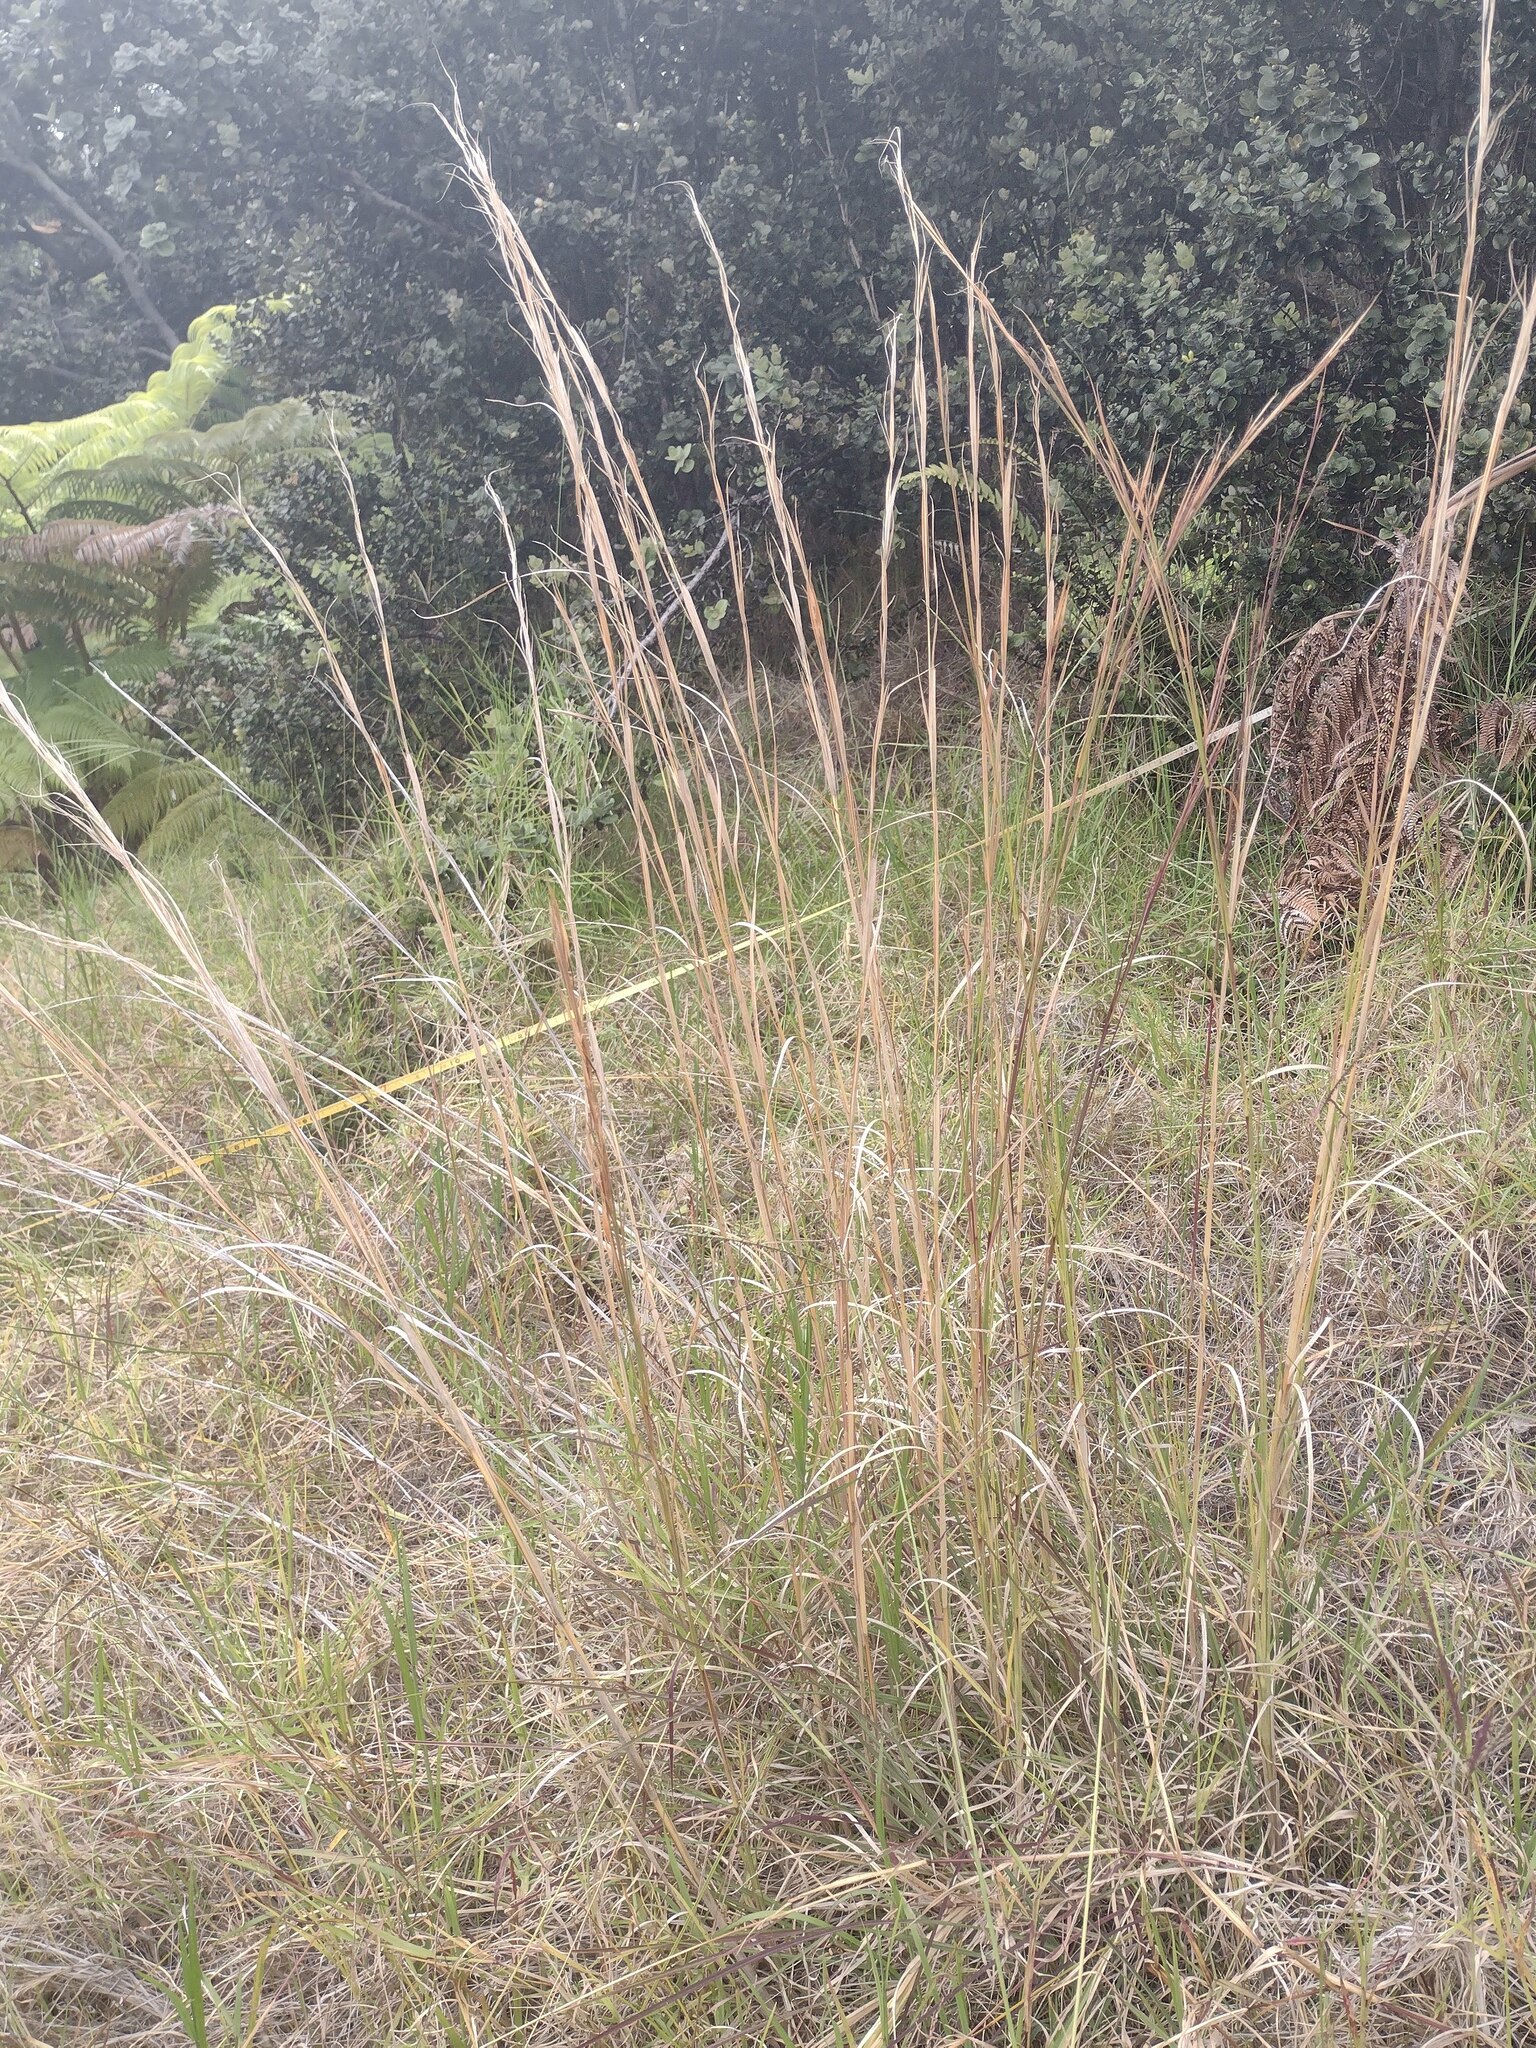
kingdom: Plantae
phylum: Tracheophyta
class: Liliopsida
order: Poales
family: Poaceae
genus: Andropogon
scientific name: Andropogon virginicus
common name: Broomsedge bluestem
